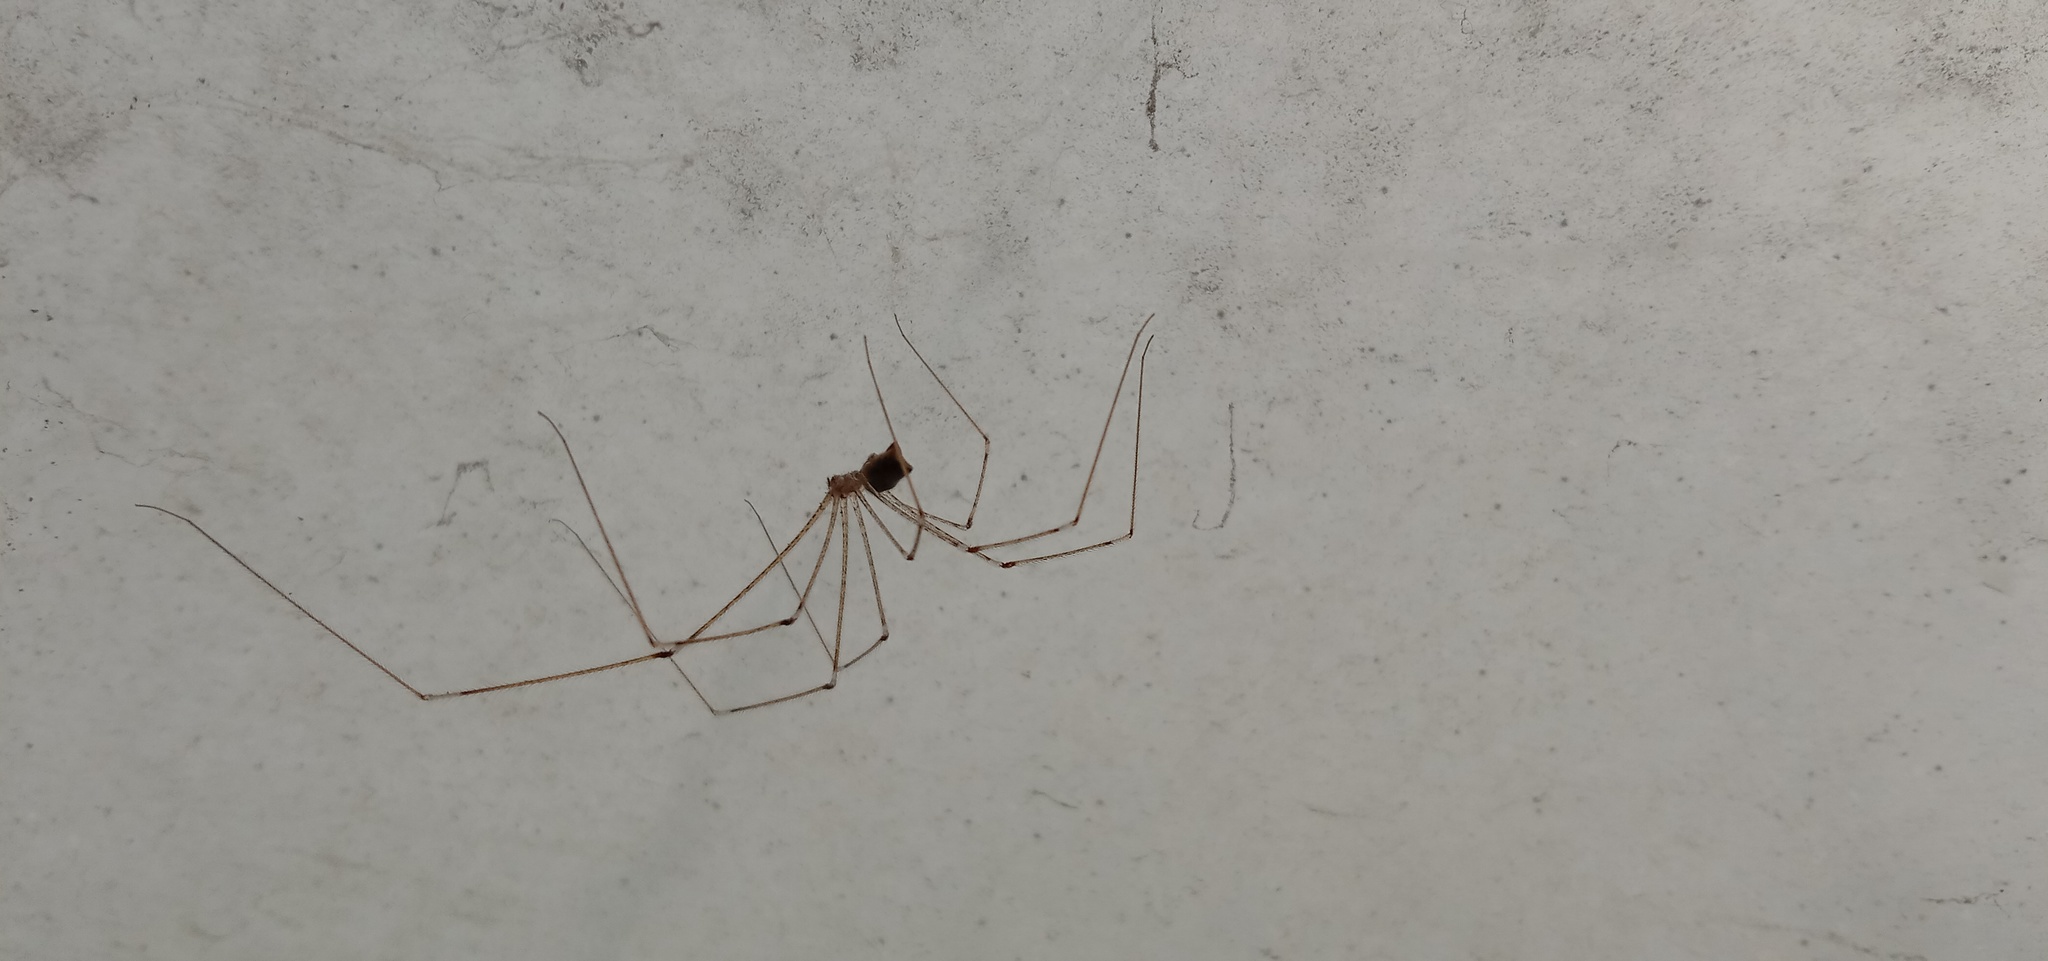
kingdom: Animalia
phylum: Arthropoda
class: Arachnida
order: Araneae
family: Pholcidae
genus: Crossopriza
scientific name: Crossopriza lyoni
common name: Cellar spiders
